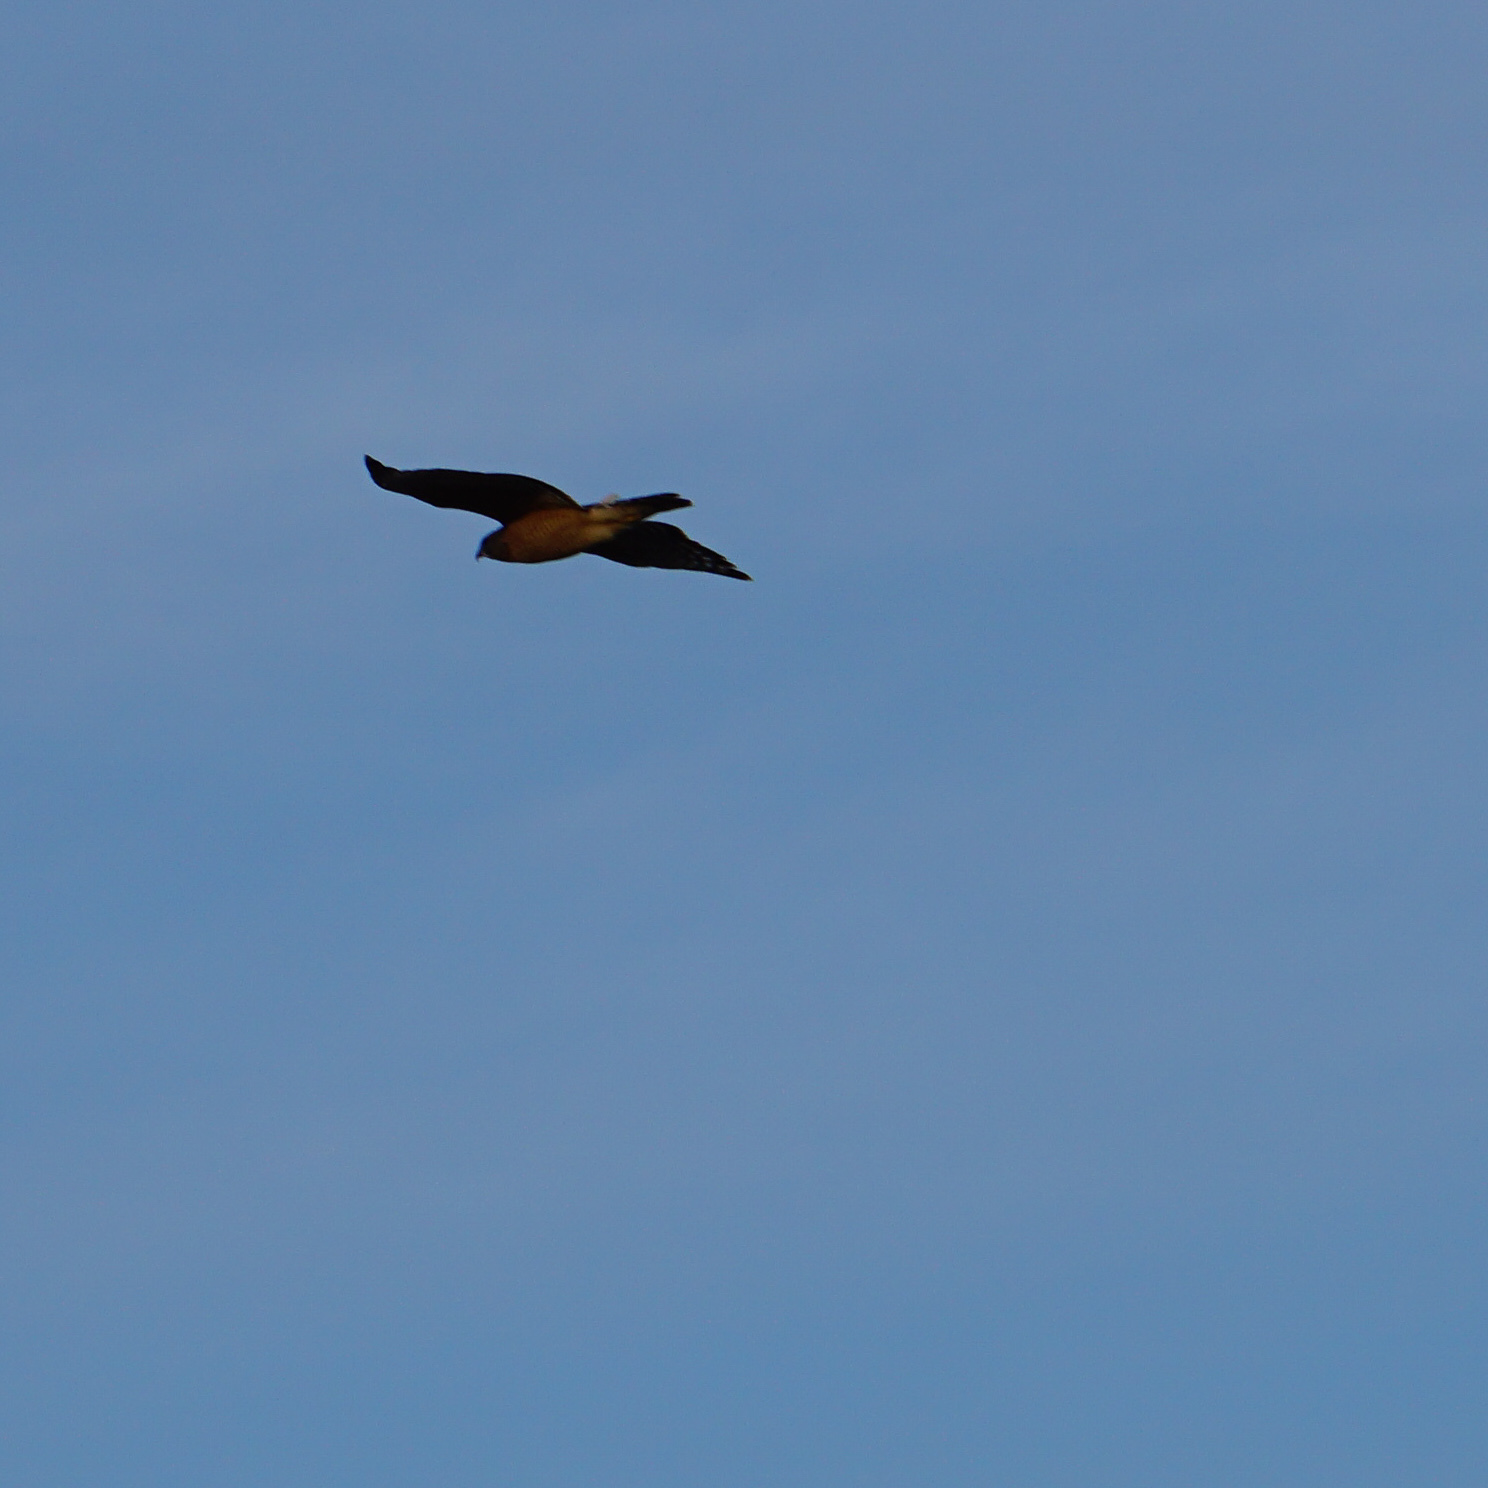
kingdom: Animalia
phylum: Chordata
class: Aves
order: Accipitriformes
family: Accipitridae
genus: Buteo
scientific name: Buteo lineatus
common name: Red-shouldered hawk
